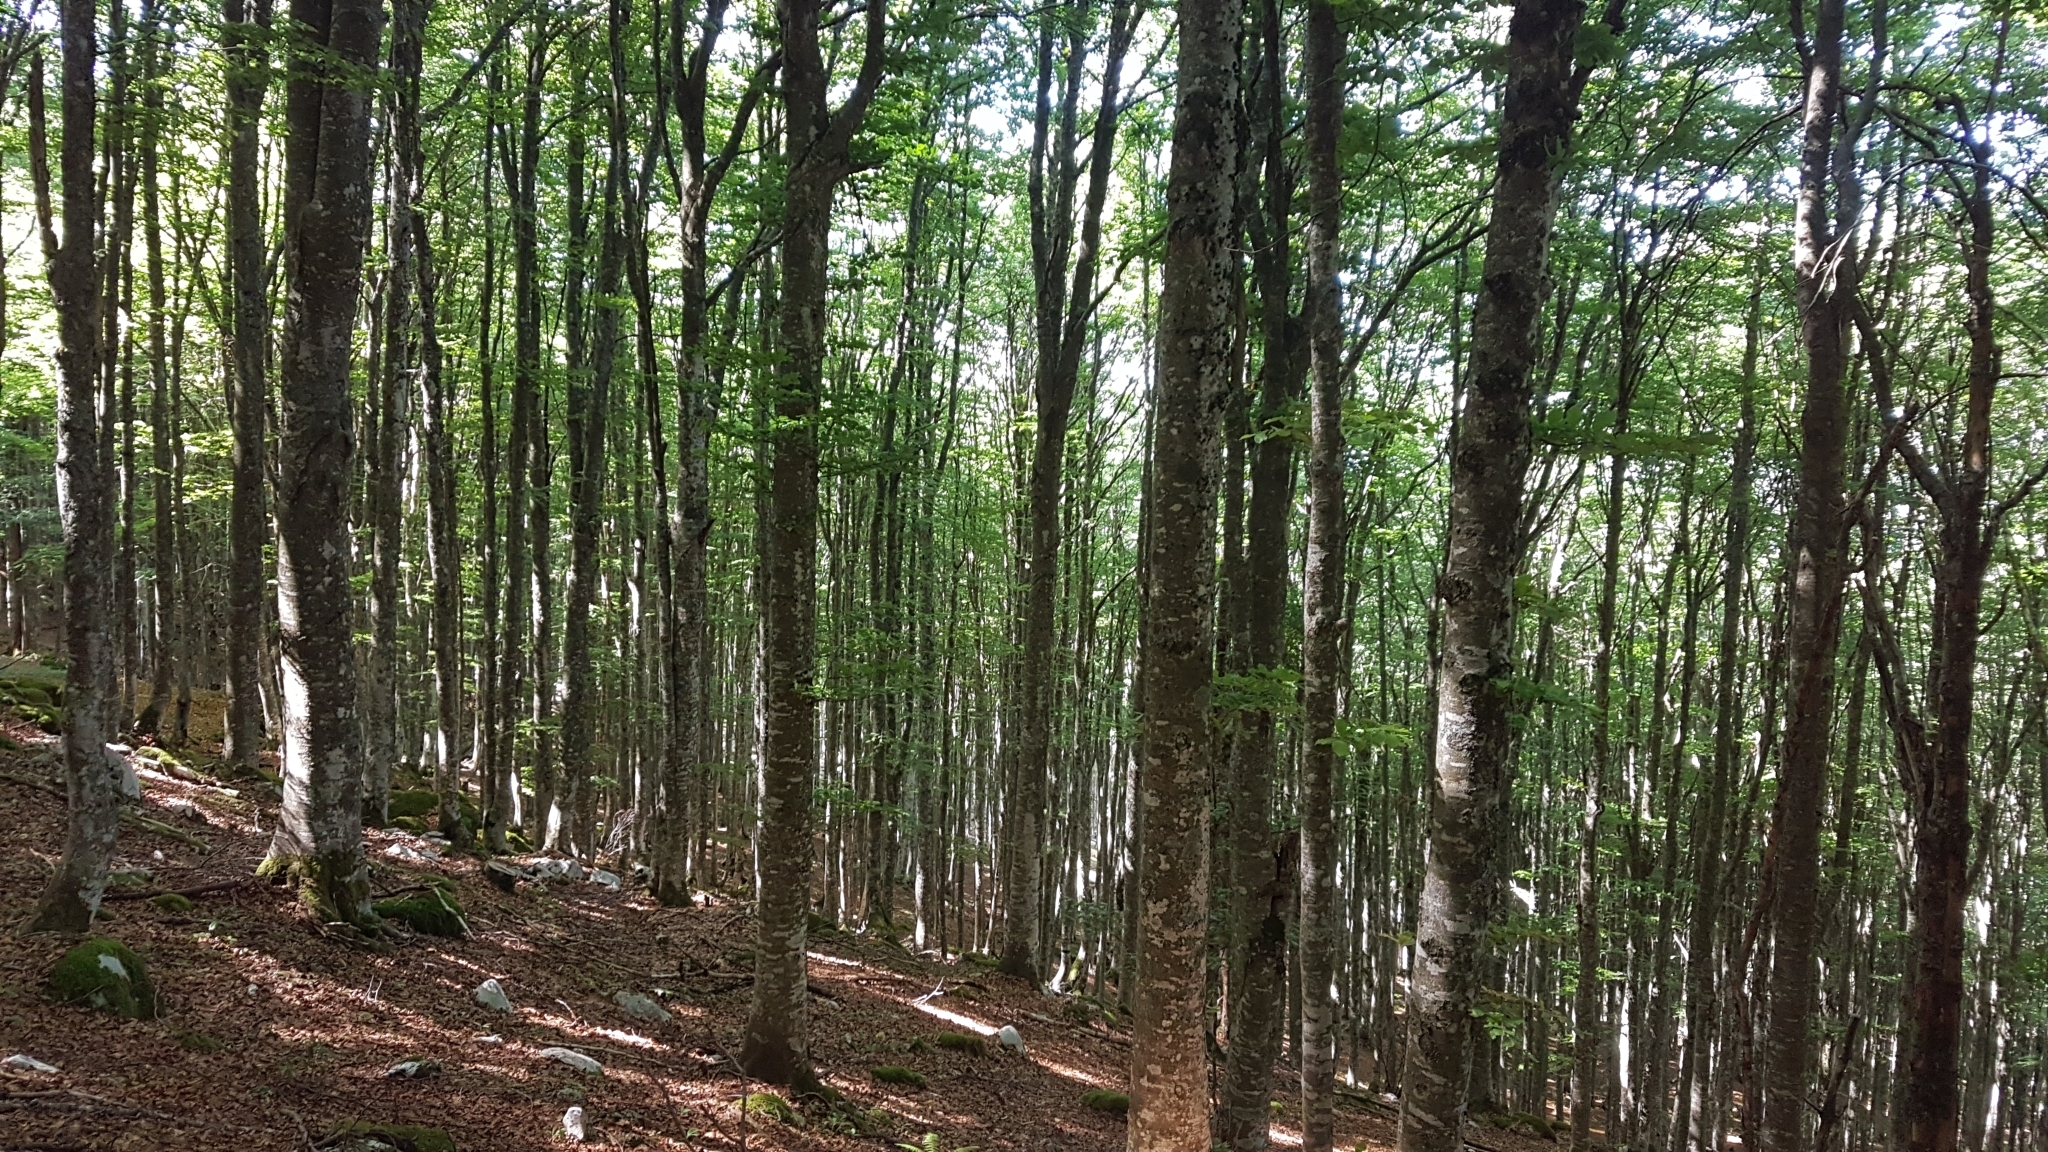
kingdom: Plantae
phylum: Tracheophyta
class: Magnoliopsida
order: Fagales
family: Fagaceae
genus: Fagus
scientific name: Fagus sylvatica
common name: Beech
